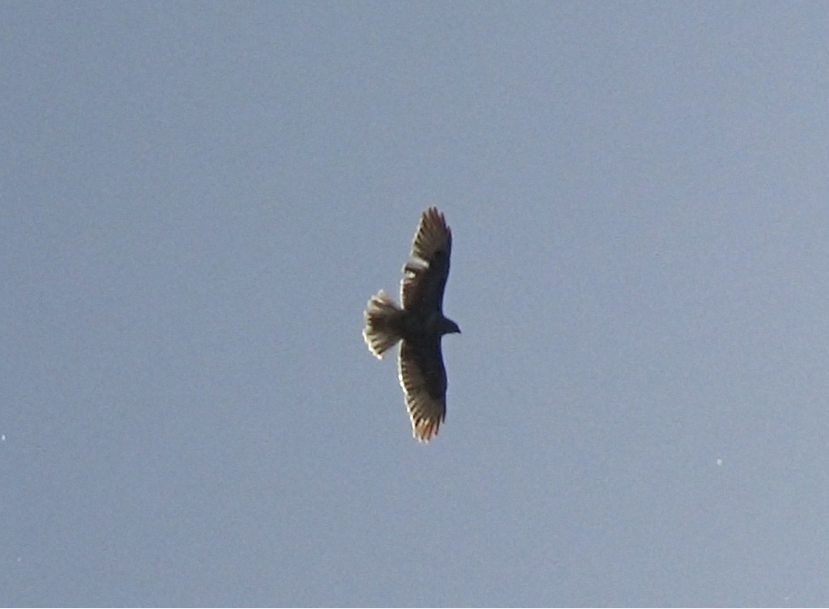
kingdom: Animalia
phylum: Chordata
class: Aves
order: Accipitriformes
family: Accipitridae
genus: Buteo
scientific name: Buteo buteo
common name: Common buzzard
